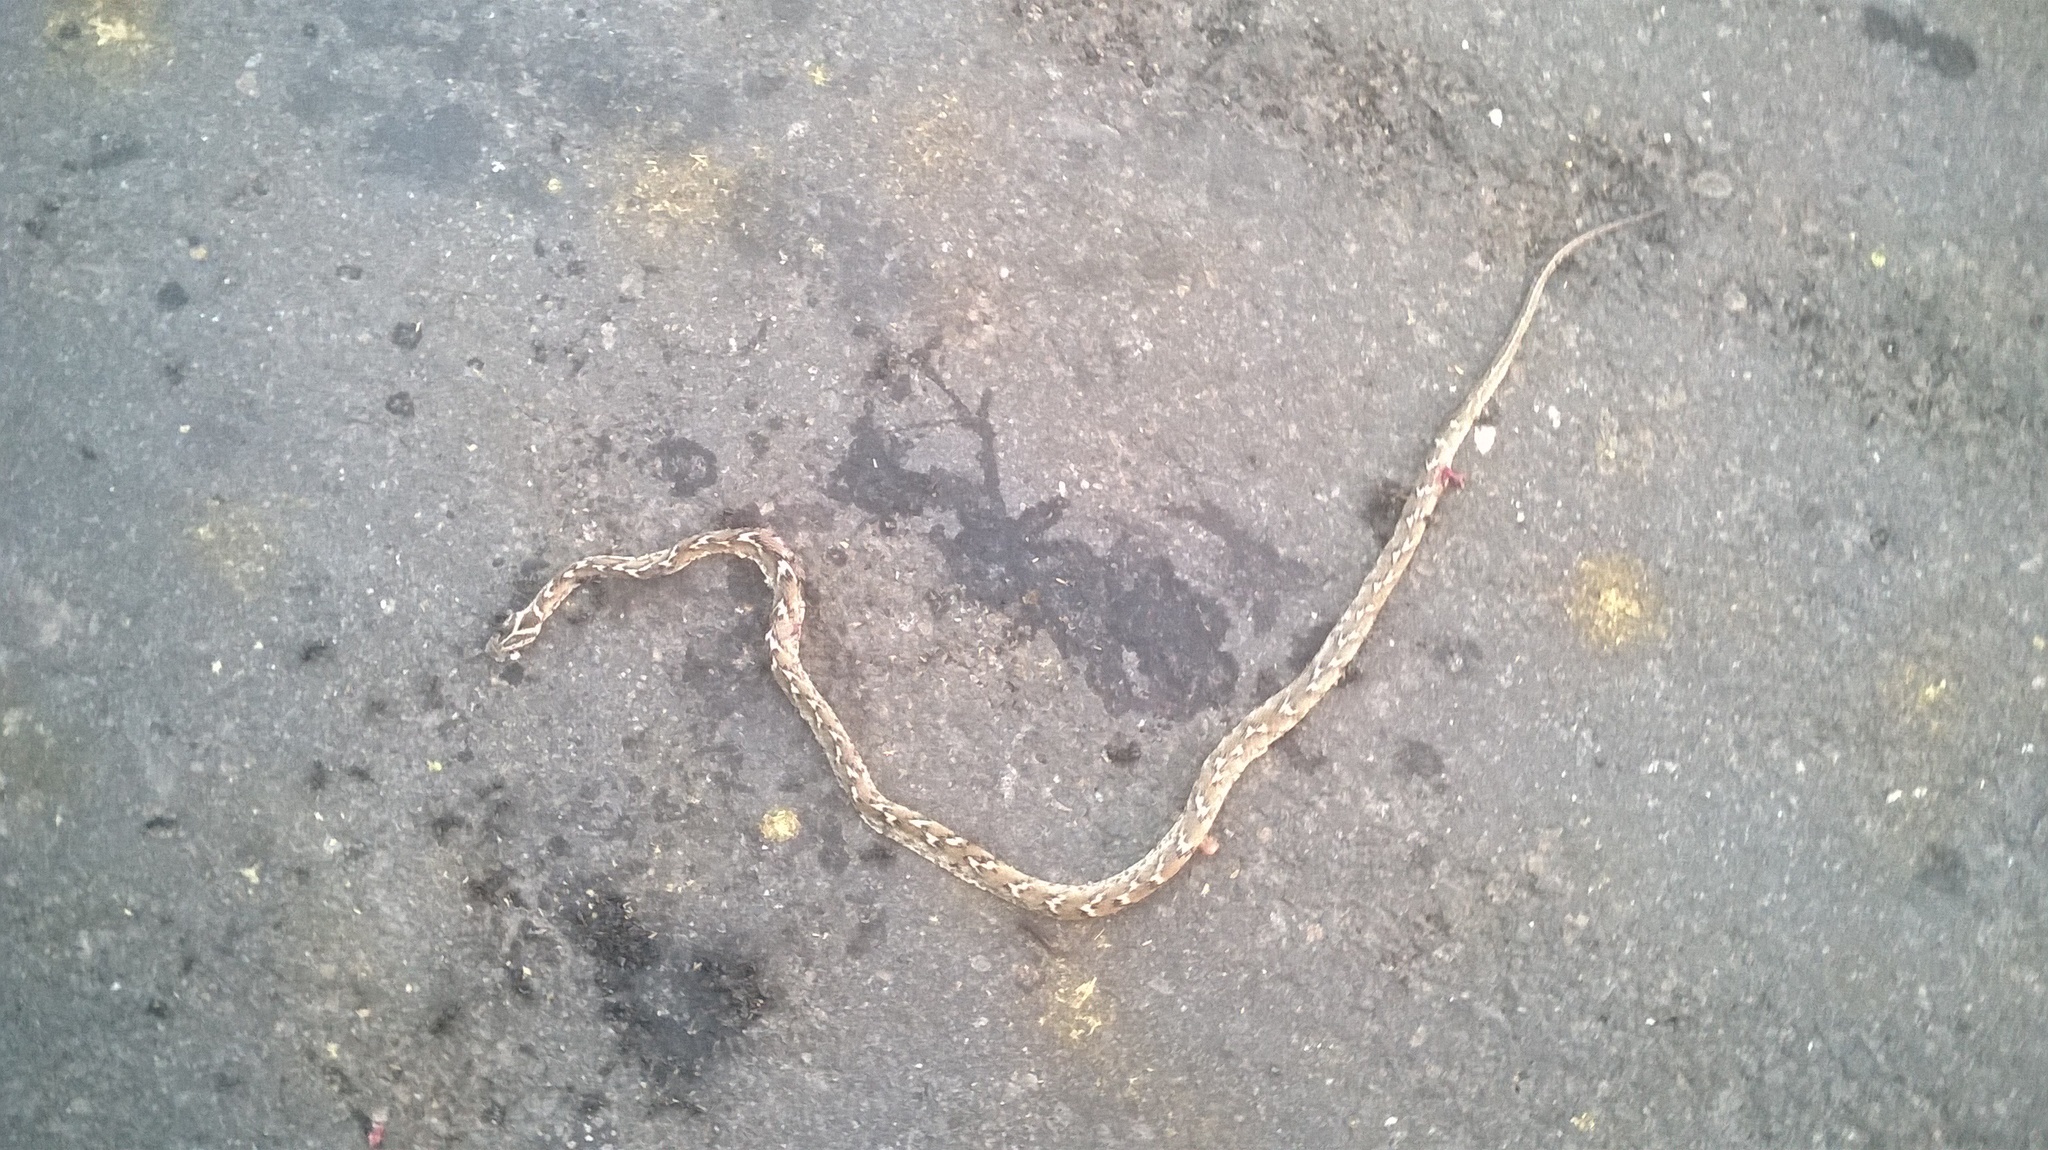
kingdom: Animalia
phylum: Chordata
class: Squamata
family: Colubridae
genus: Boiga
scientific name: Boiga trigonata
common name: Common cat snake
